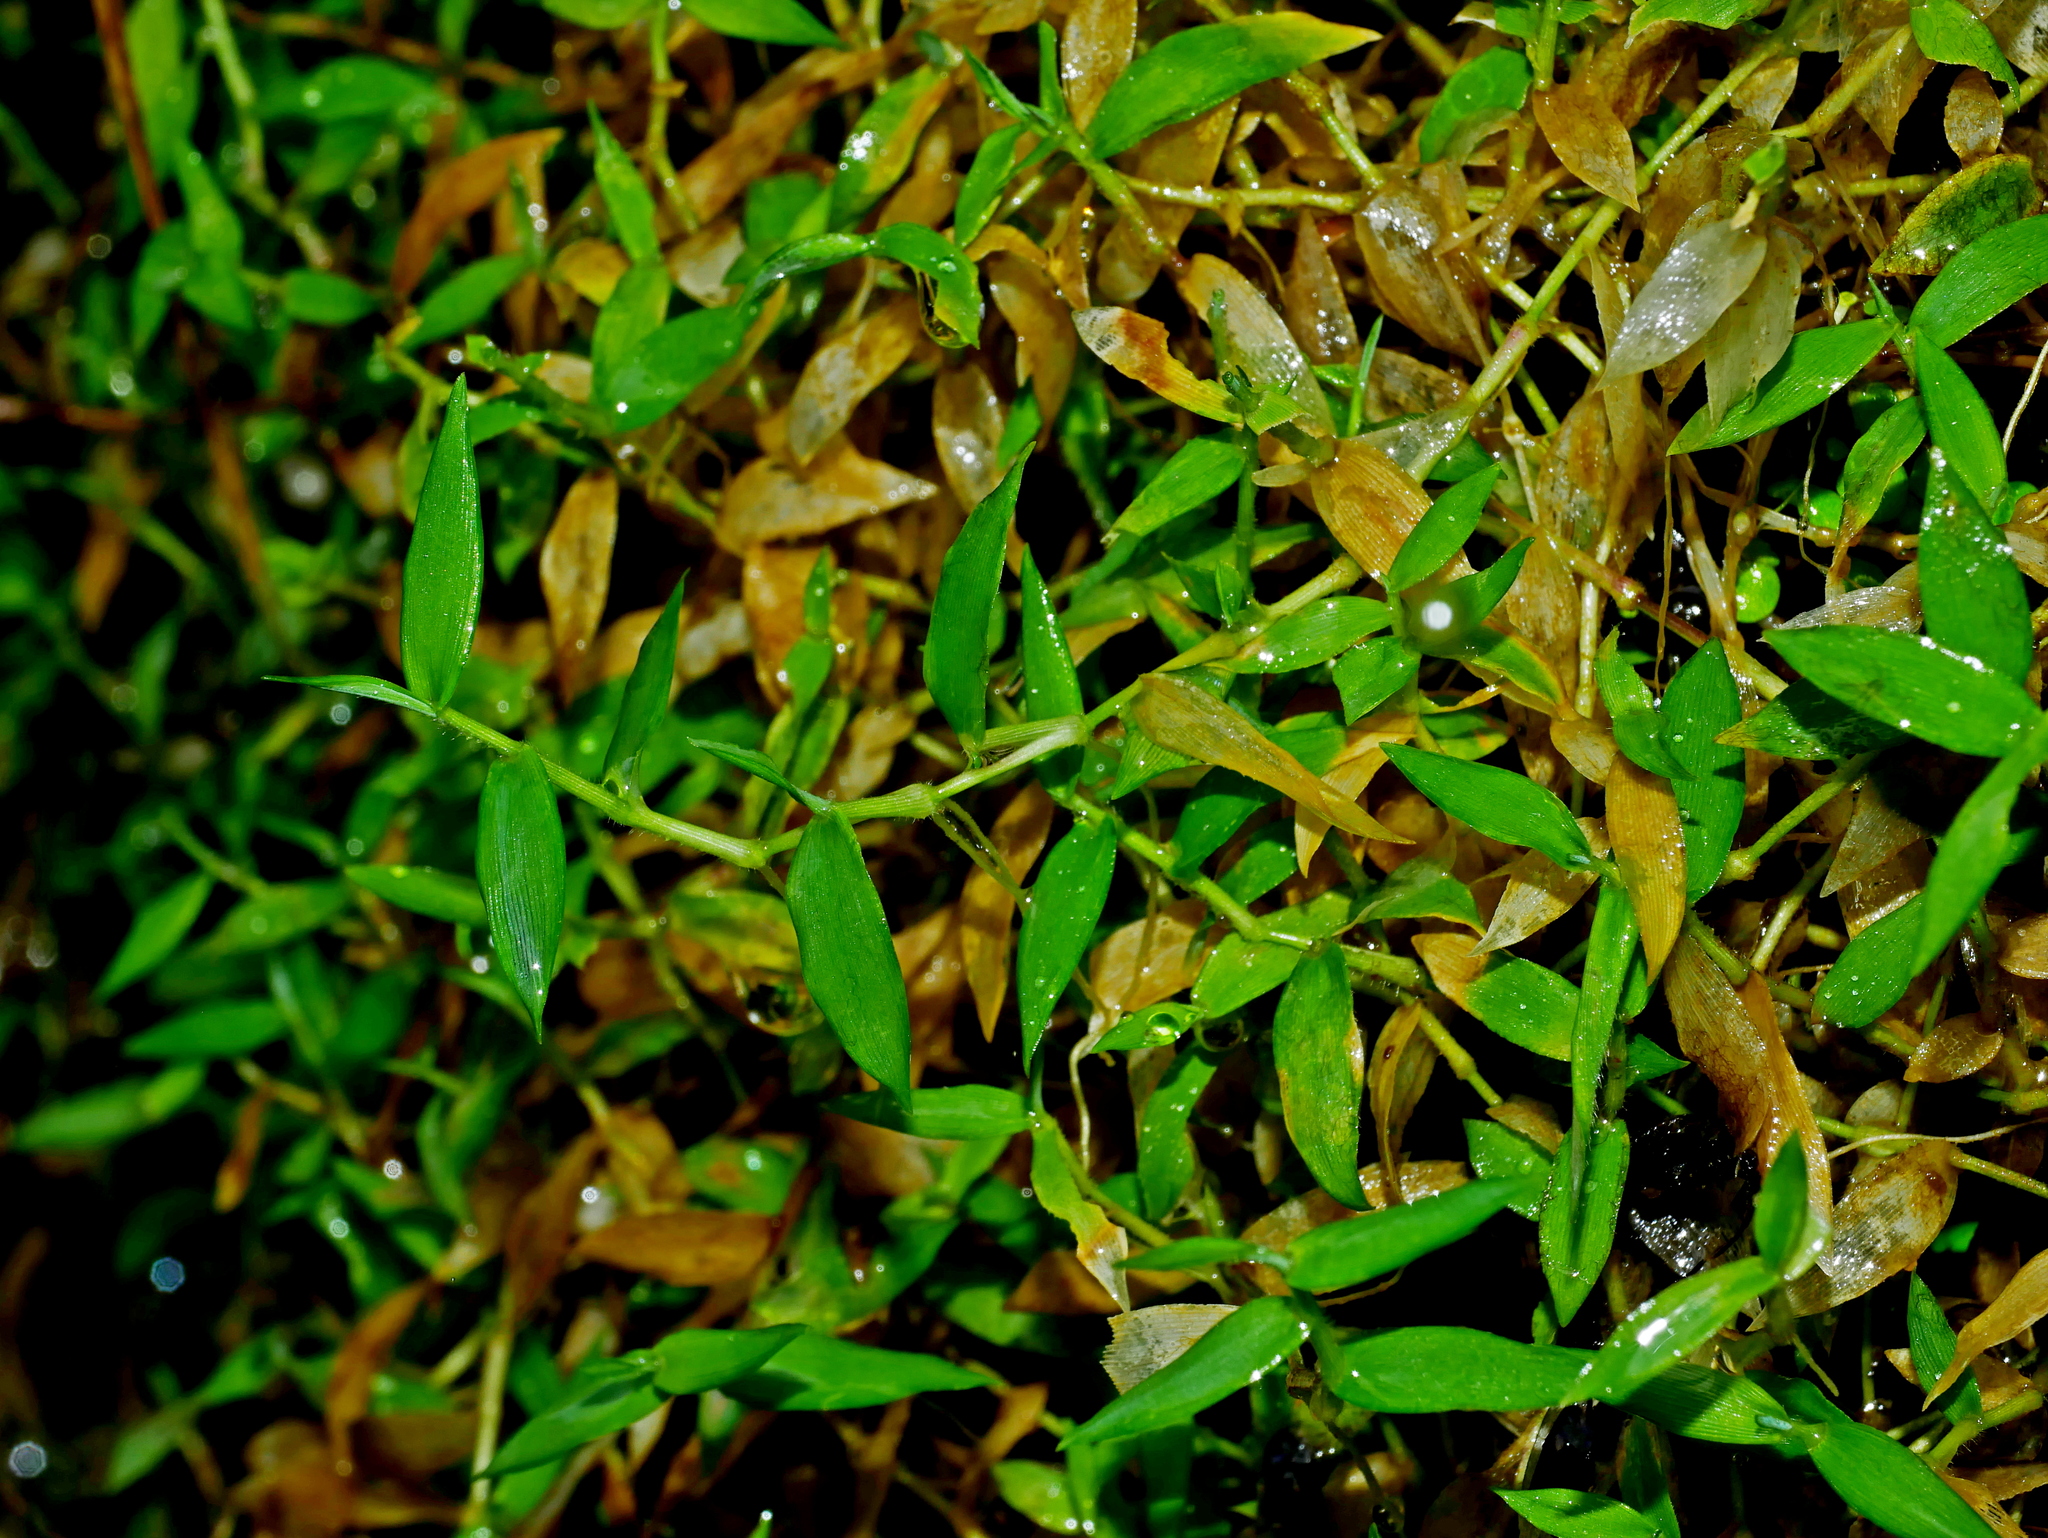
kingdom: Plantae
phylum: Tracheophyta
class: Liliopsida
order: Poales
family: Poaceae
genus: Isachne
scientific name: Isachne myosotis
